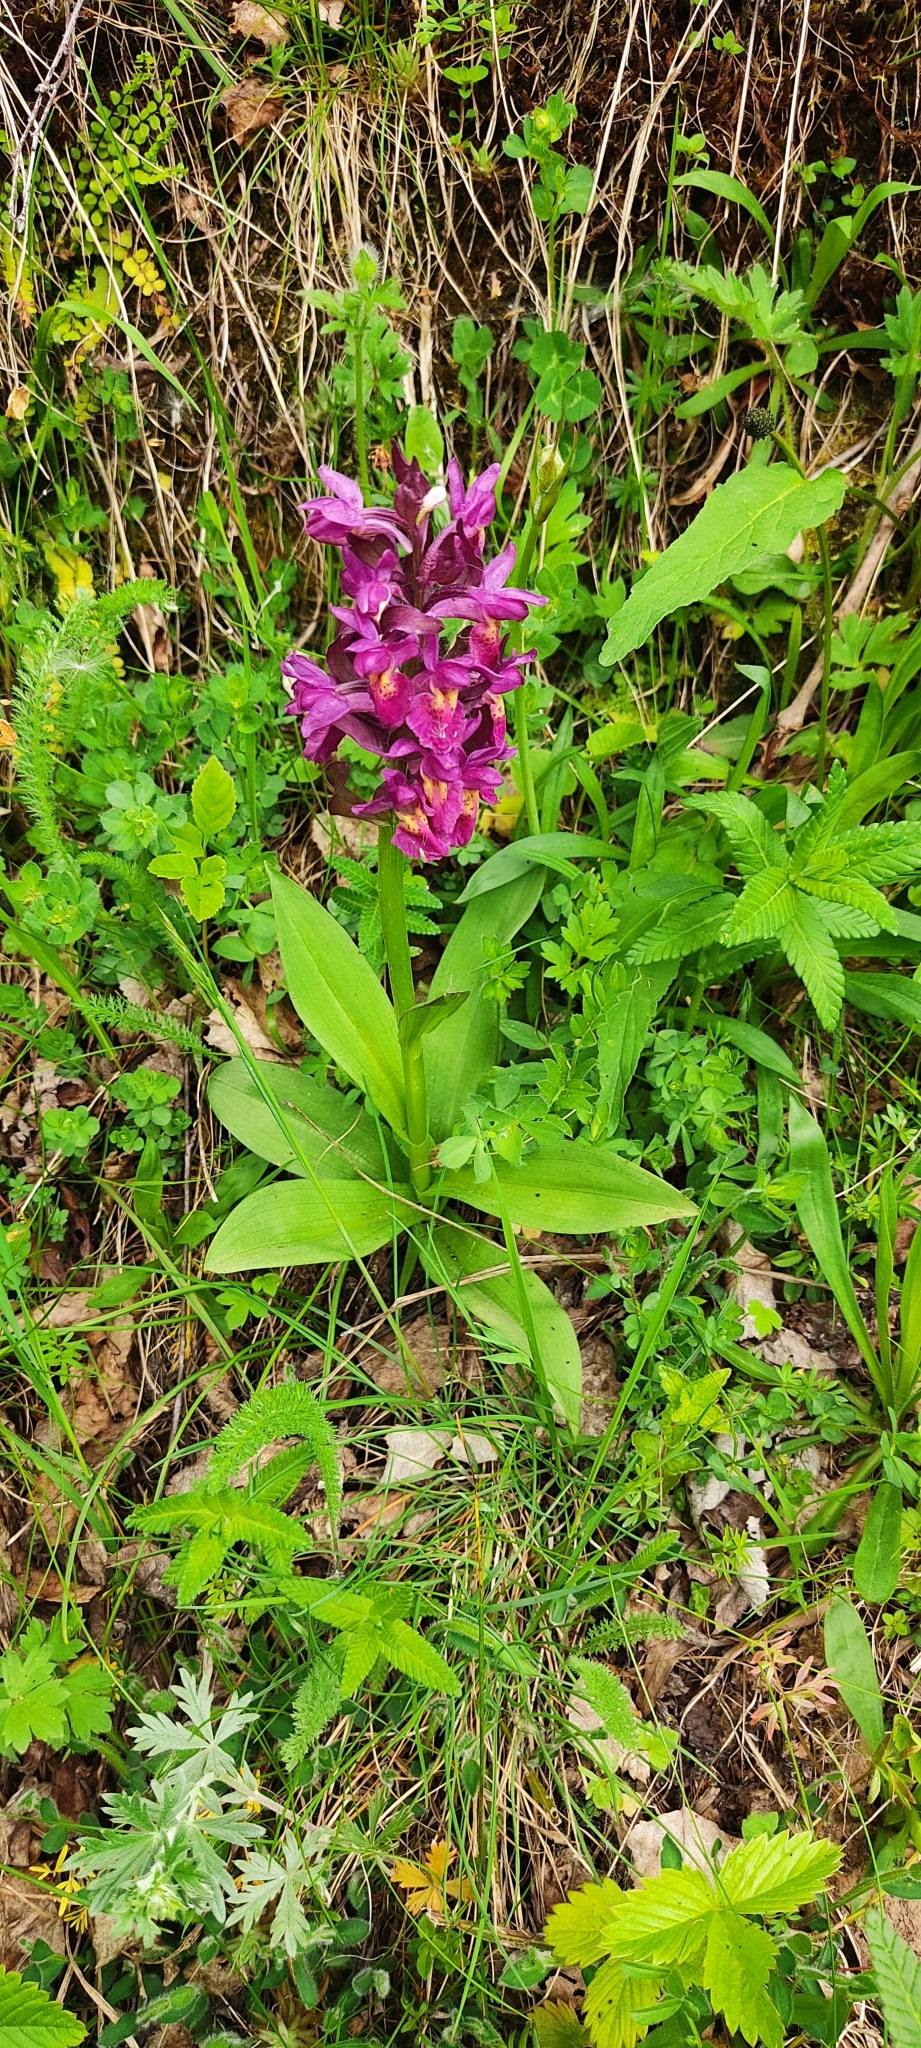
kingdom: Plantae
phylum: Tracheophyta
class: Liliopsida
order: Asparagales
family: Orchidaceae
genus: Dactylorhiza
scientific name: Dactylorhiza sambucina
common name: Elder-flowered orchid
